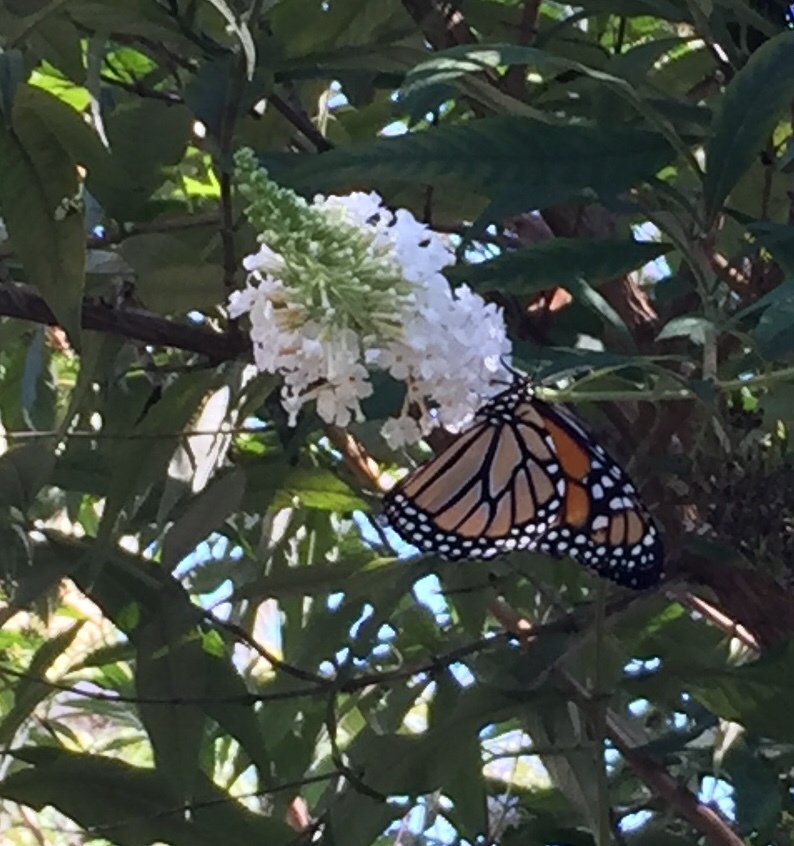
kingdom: Animalia
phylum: Arthropoda
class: Insecta
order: Lepidoptera
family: Nymphalidae
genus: Danaus
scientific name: Danaus plexippus
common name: Monarch
